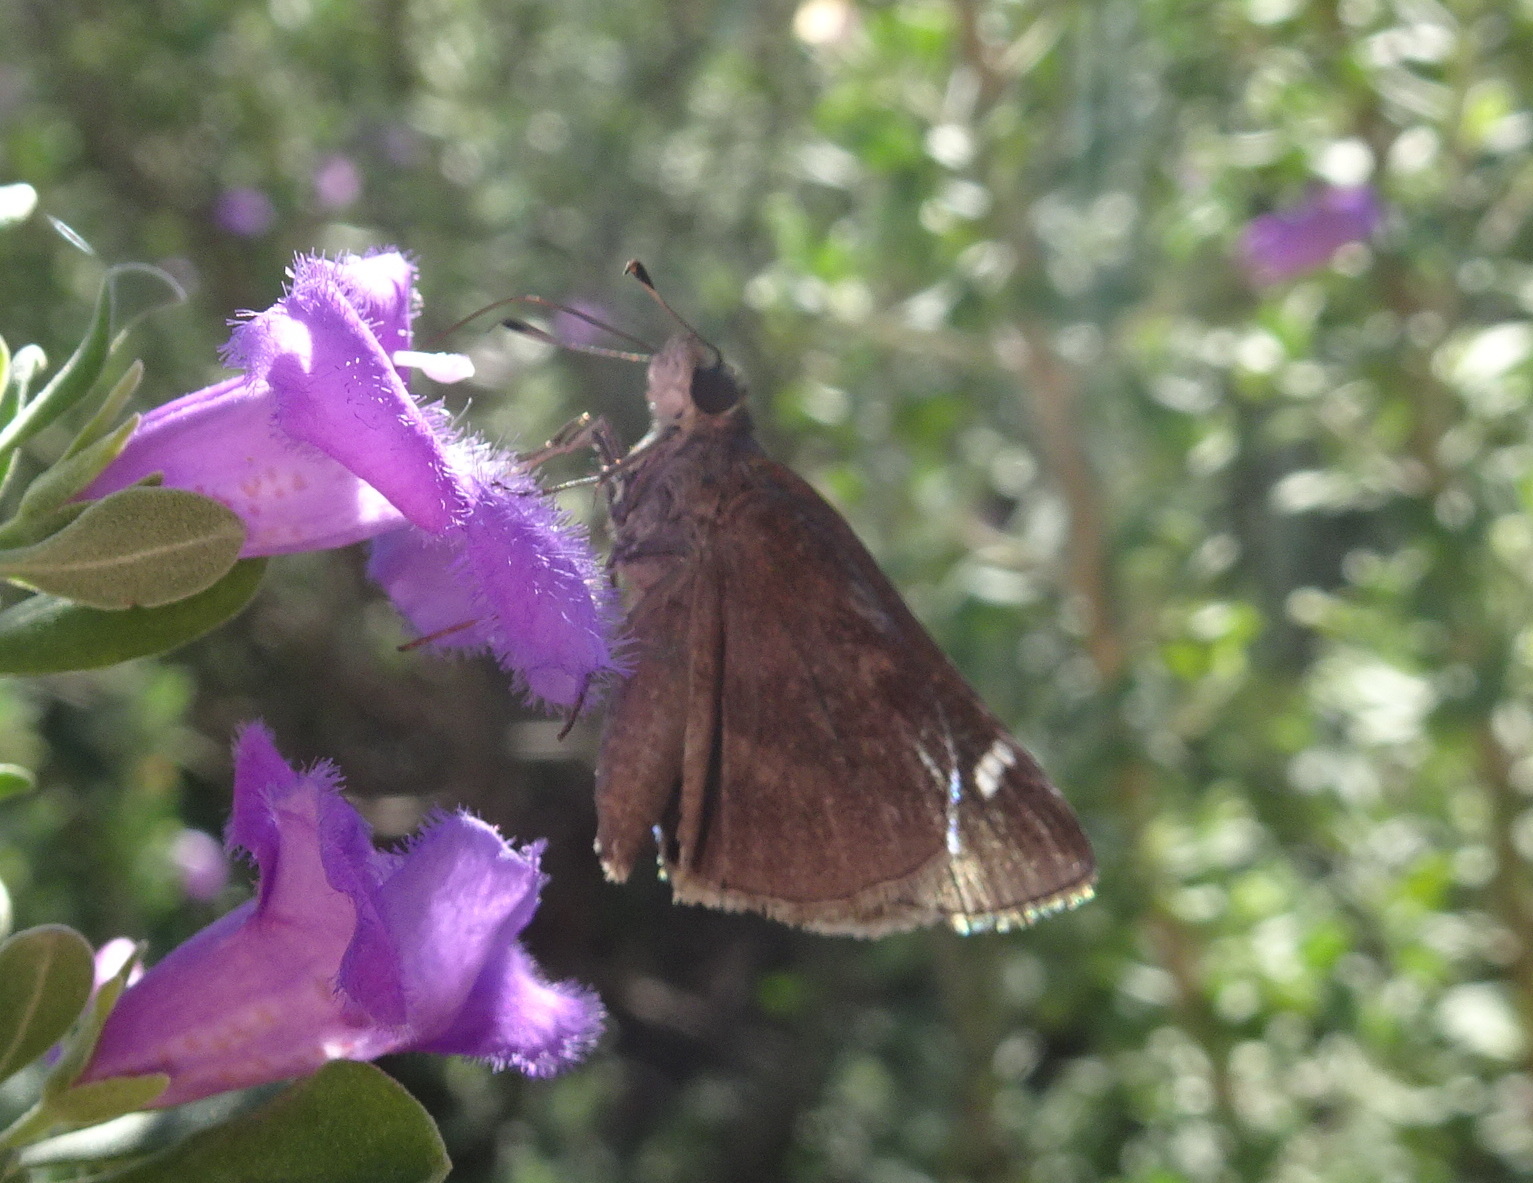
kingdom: Animalia
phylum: Arthropoda
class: Insecta
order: Lepidoptera
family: Hesperiidae
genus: Lerema
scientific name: Lerema accius
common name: Clouded skipper
